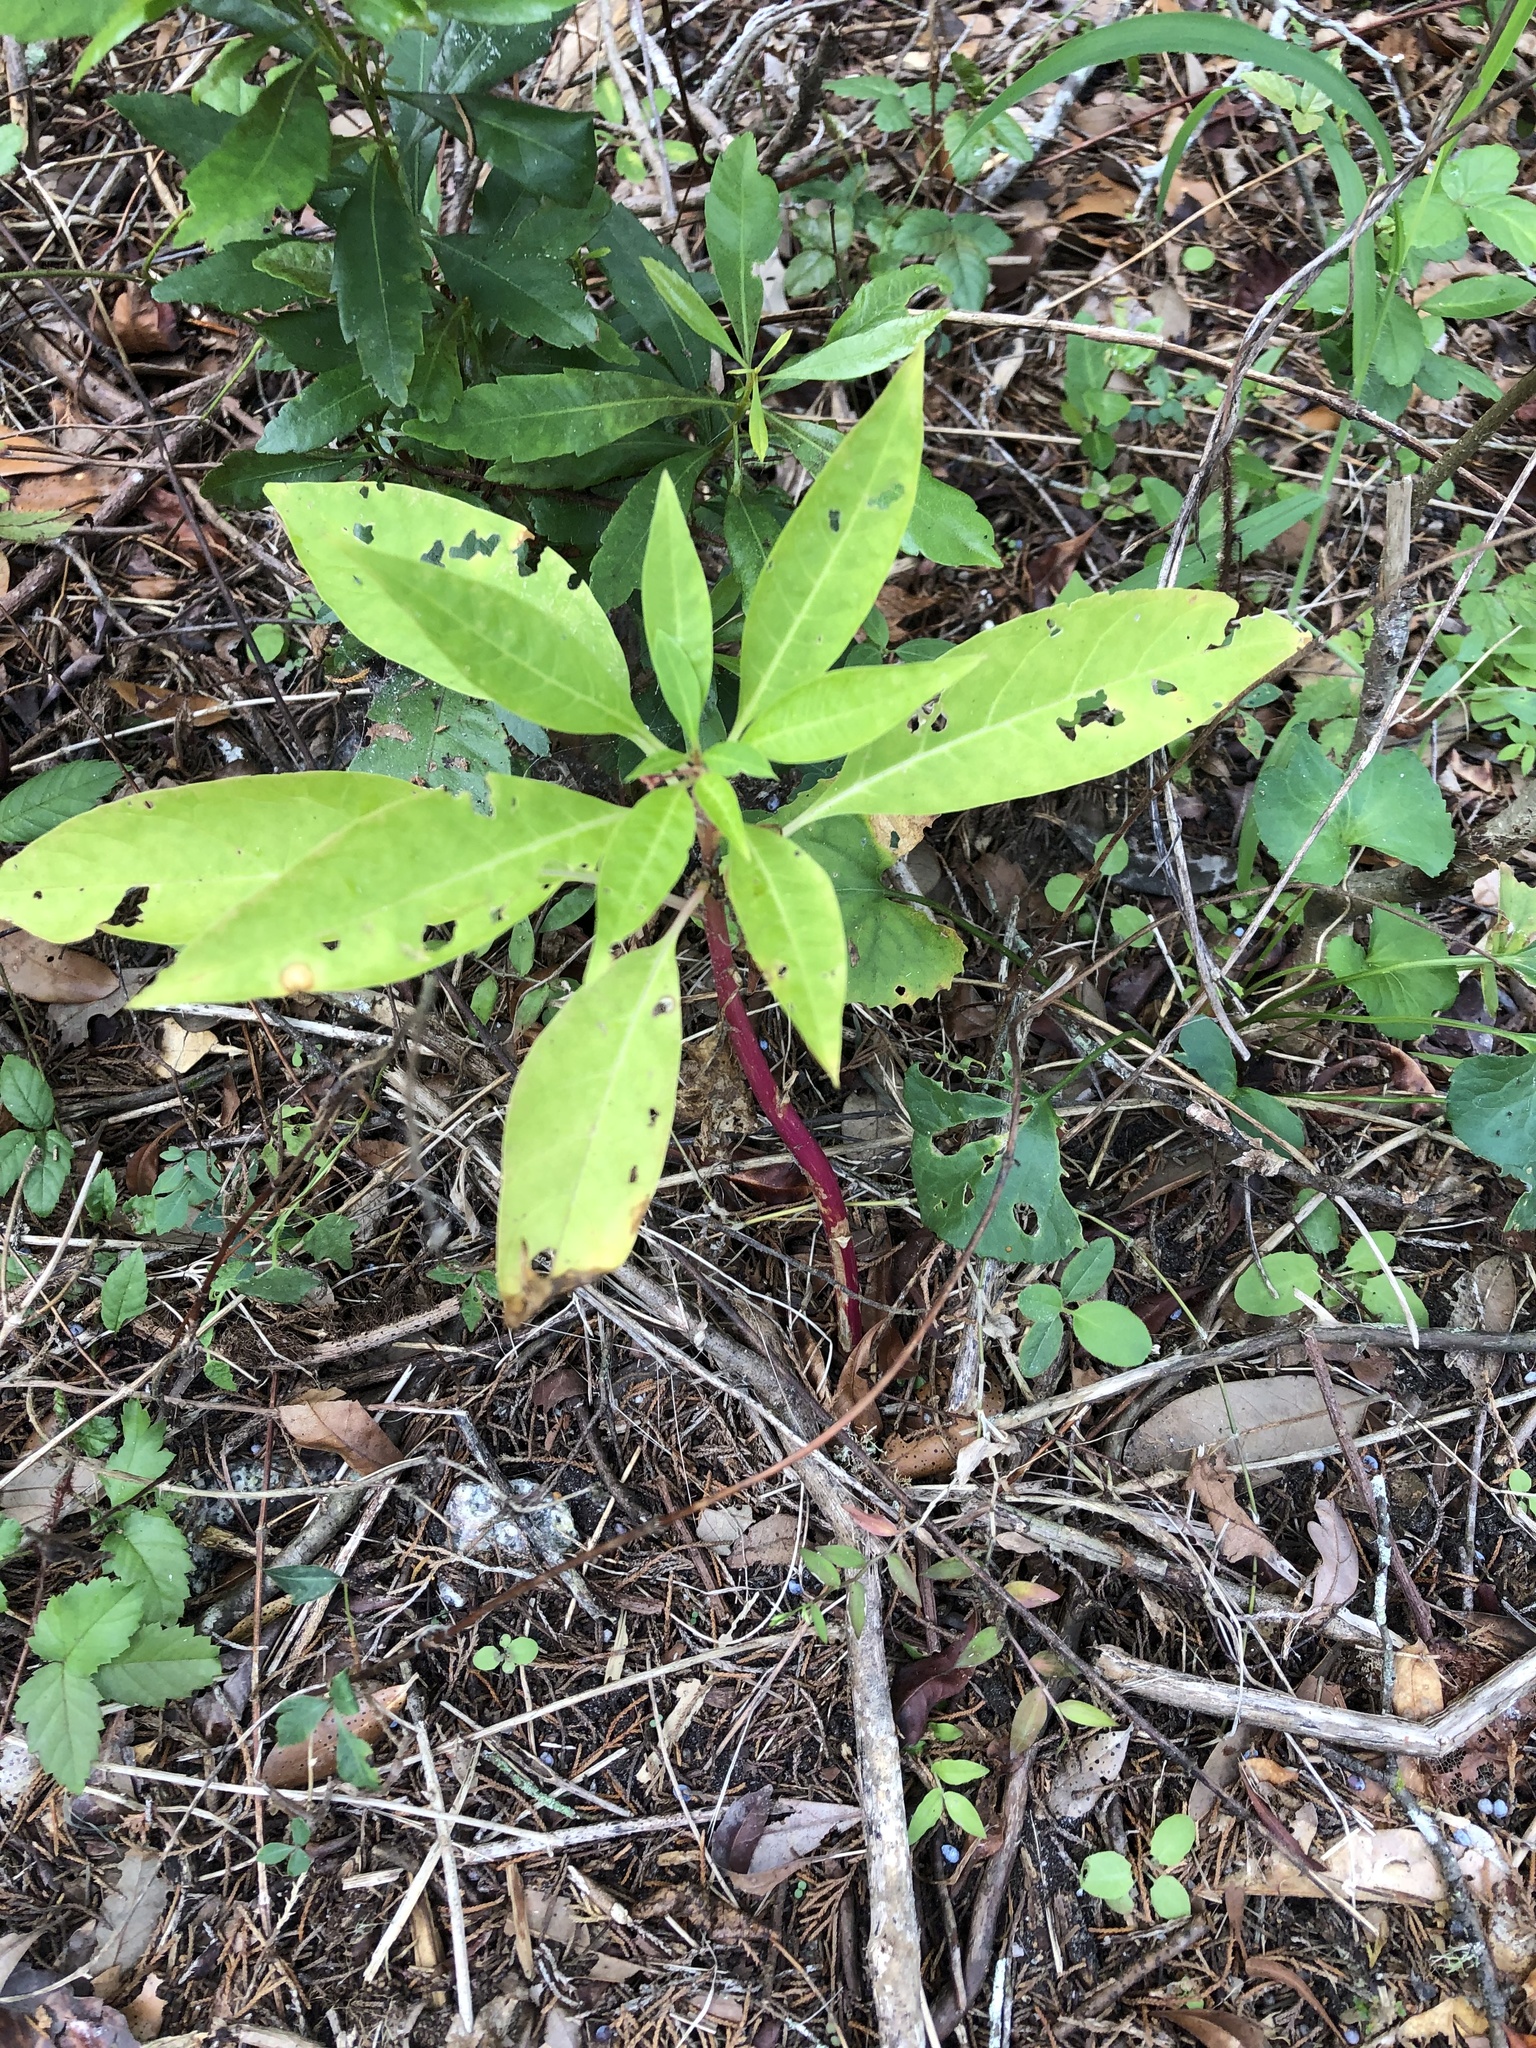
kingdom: Plantae
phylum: Tracheophyta
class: Magnoliopsida
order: Caryophyllales
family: Phytolaccaceae
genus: Phytolacca
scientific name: Phytolacca americana
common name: American pokeweed
